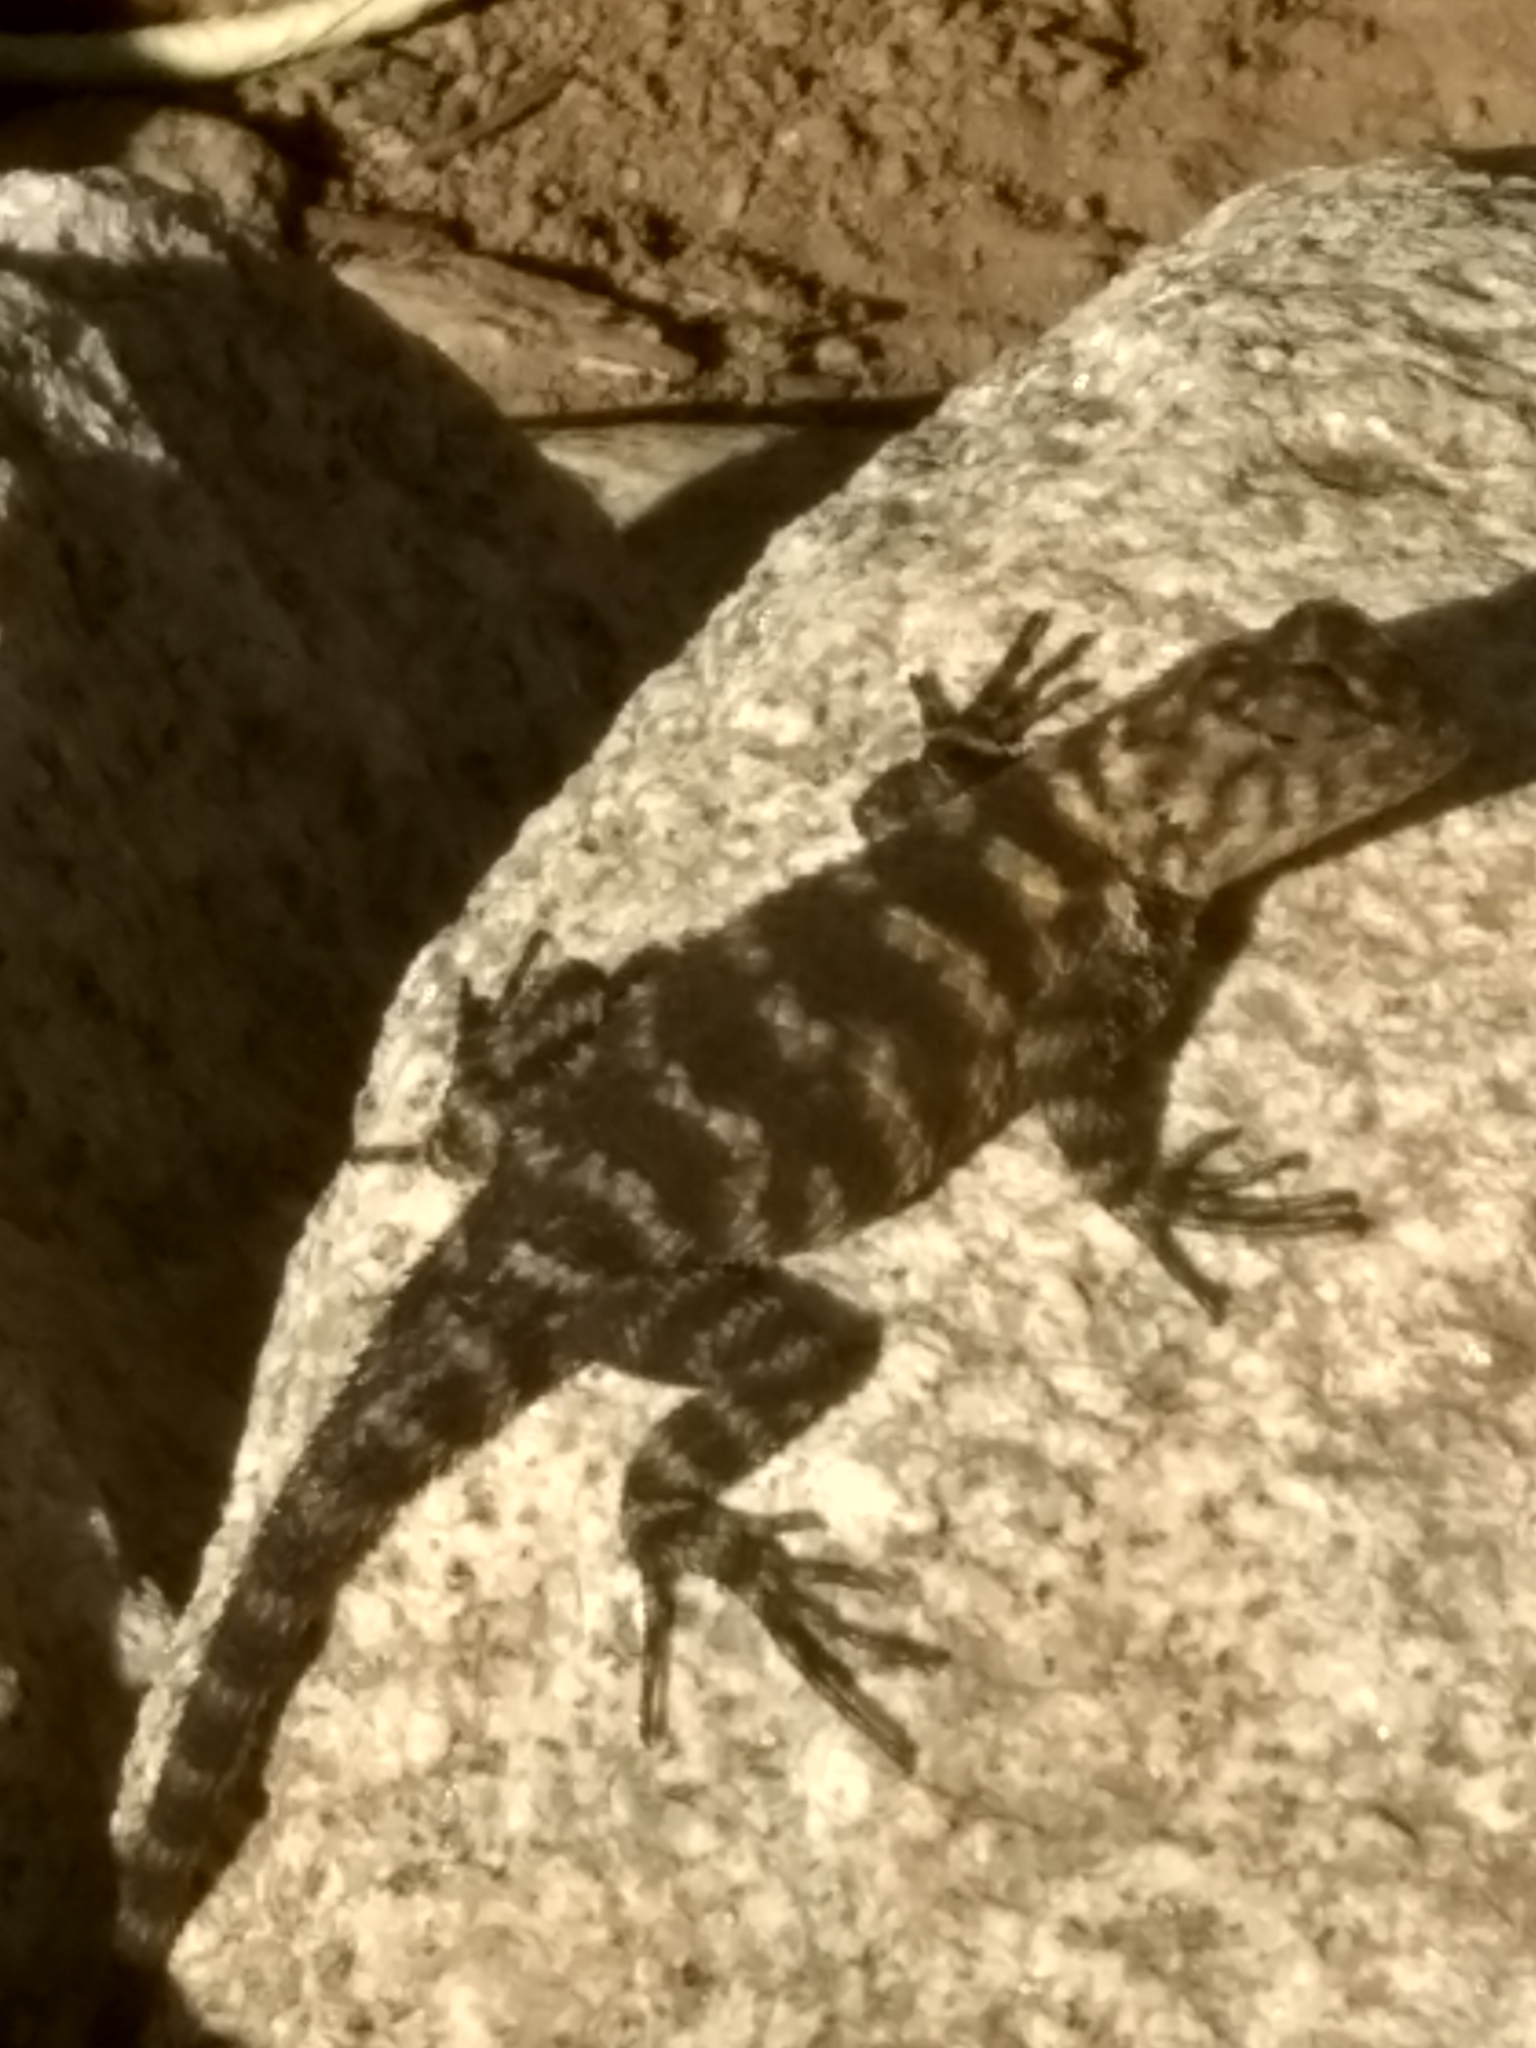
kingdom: Animalia
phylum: Chordata
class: Squamata
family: Phrynosomatidae
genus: Sceloporus
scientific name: Sceloporus orcutti
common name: Granite spiny lizard
